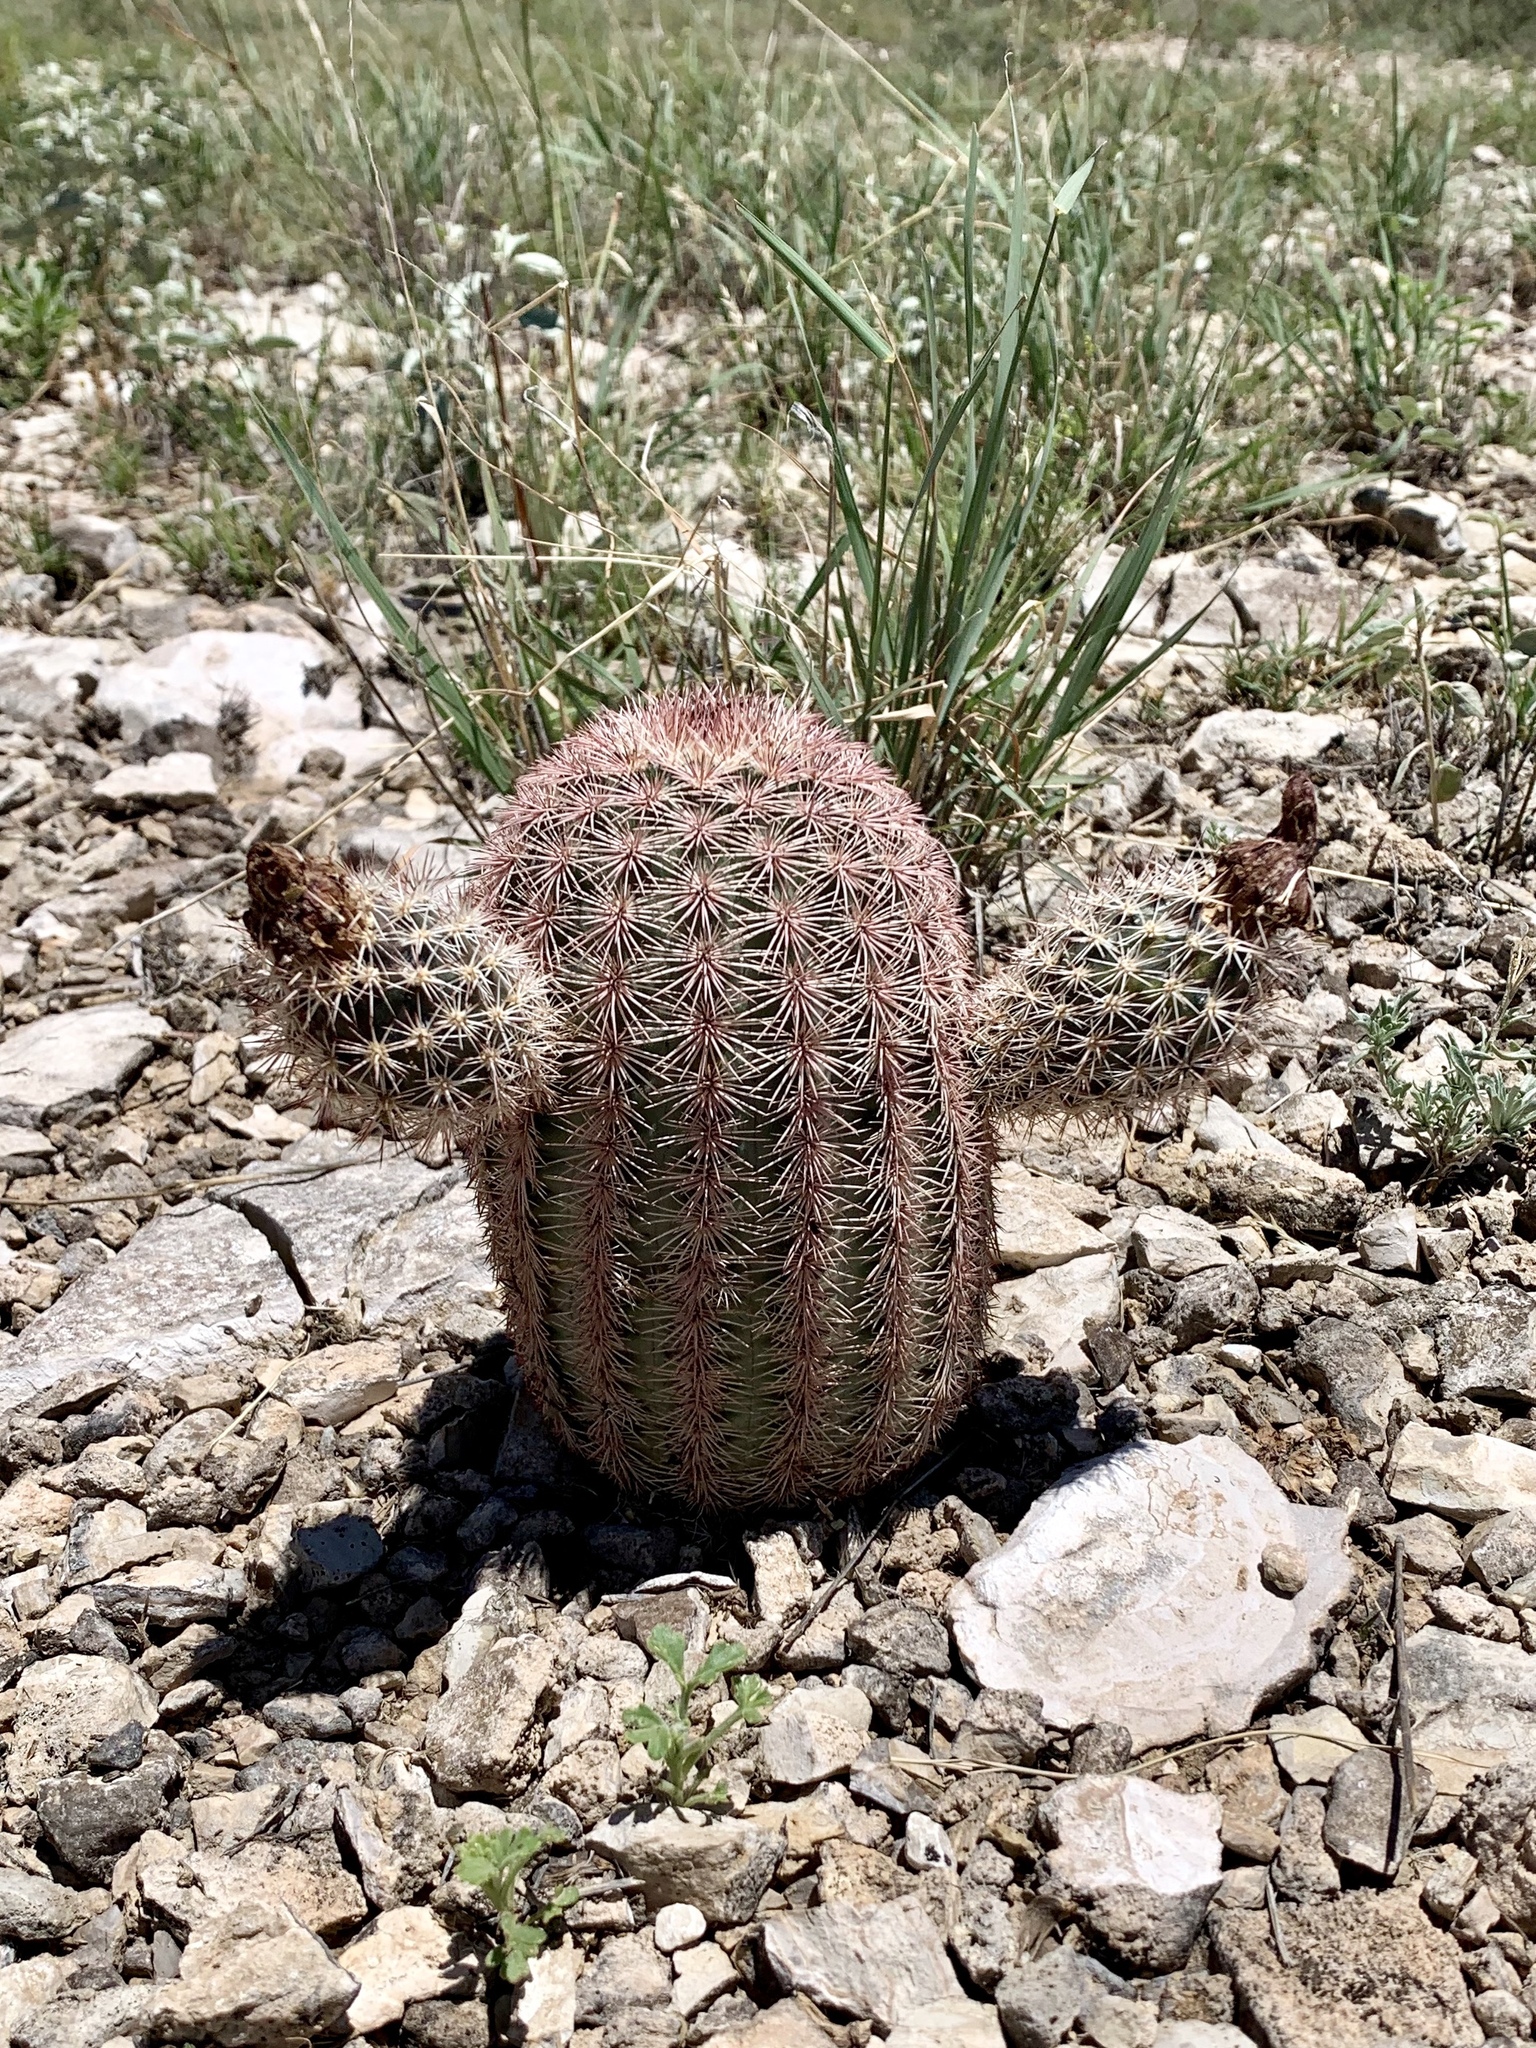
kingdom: Plantae
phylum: Tracheophyta
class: Magnoliopsida
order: Caryophyllales
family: Cactaceae
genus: Echinocereus
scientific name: Echinocereus dasyacanthus
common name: Spiny hedgehog cactus
